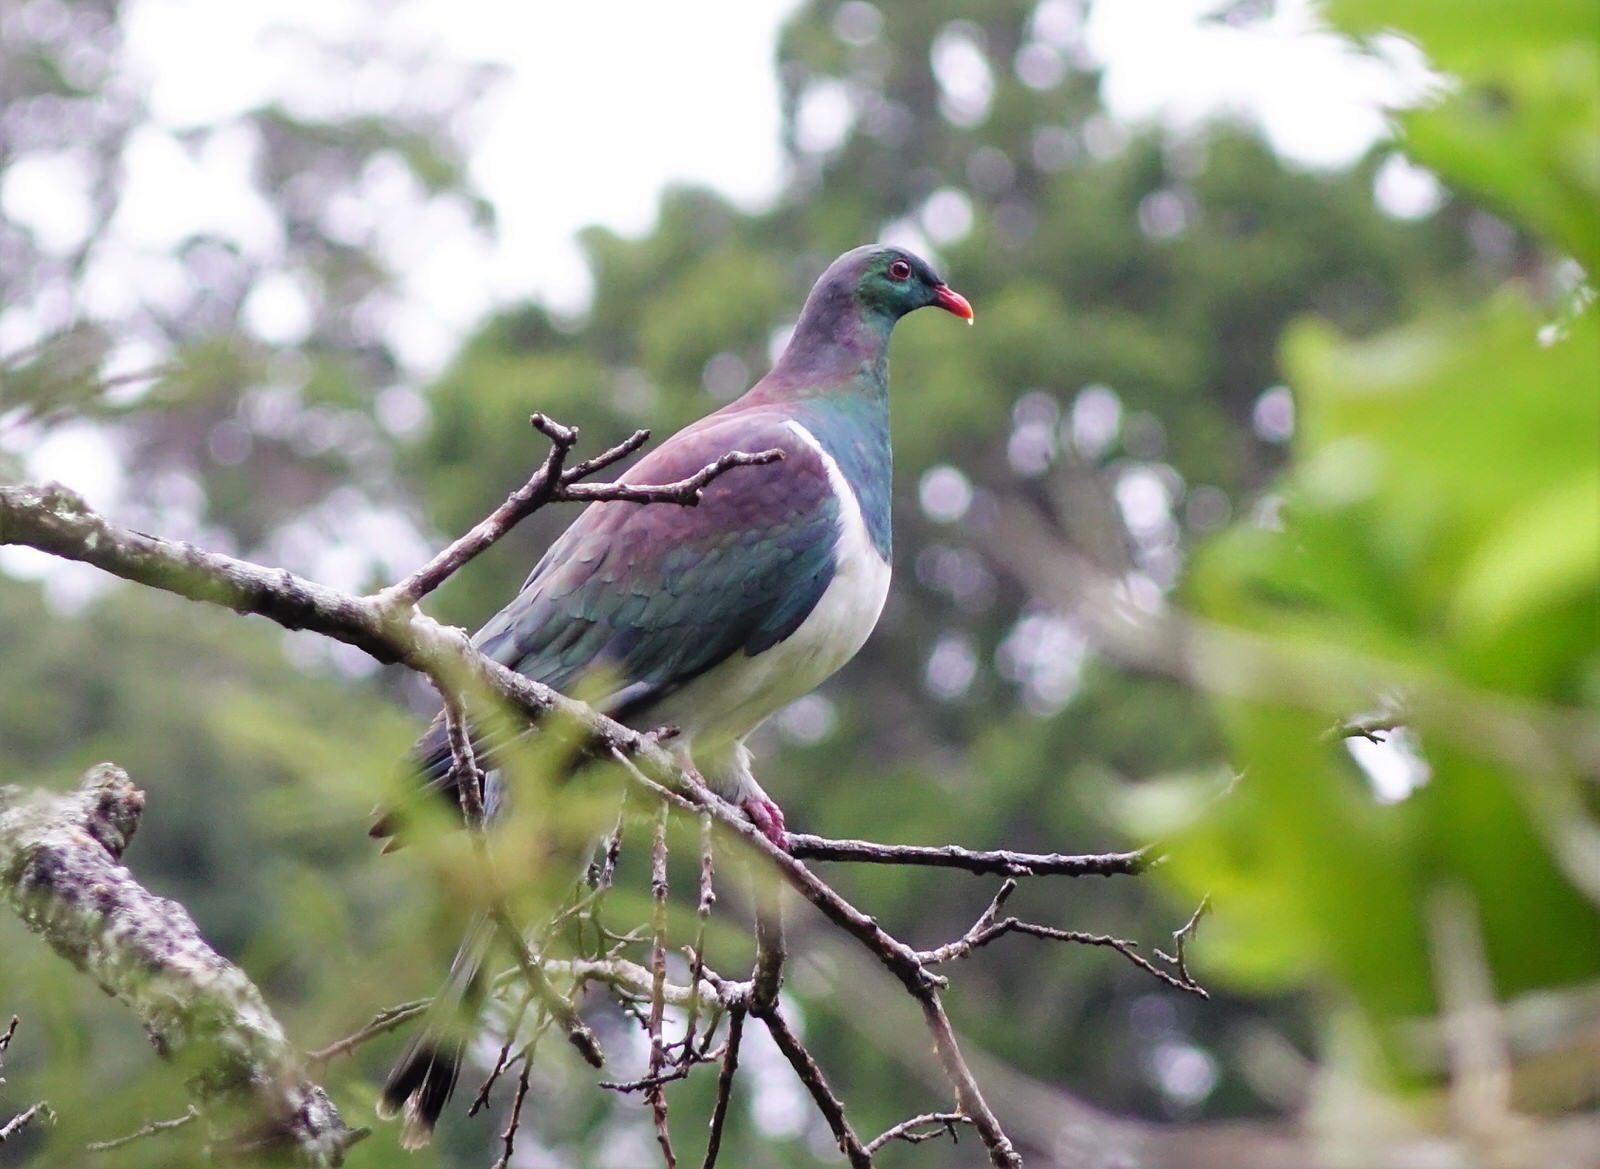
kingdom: Animalia
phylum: Chordata
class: Aves
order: Columbiformes
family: Columbidae
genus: Hemiphaga
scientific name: Hemiphaga novaeseelandiae
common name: New zealand pigeon
